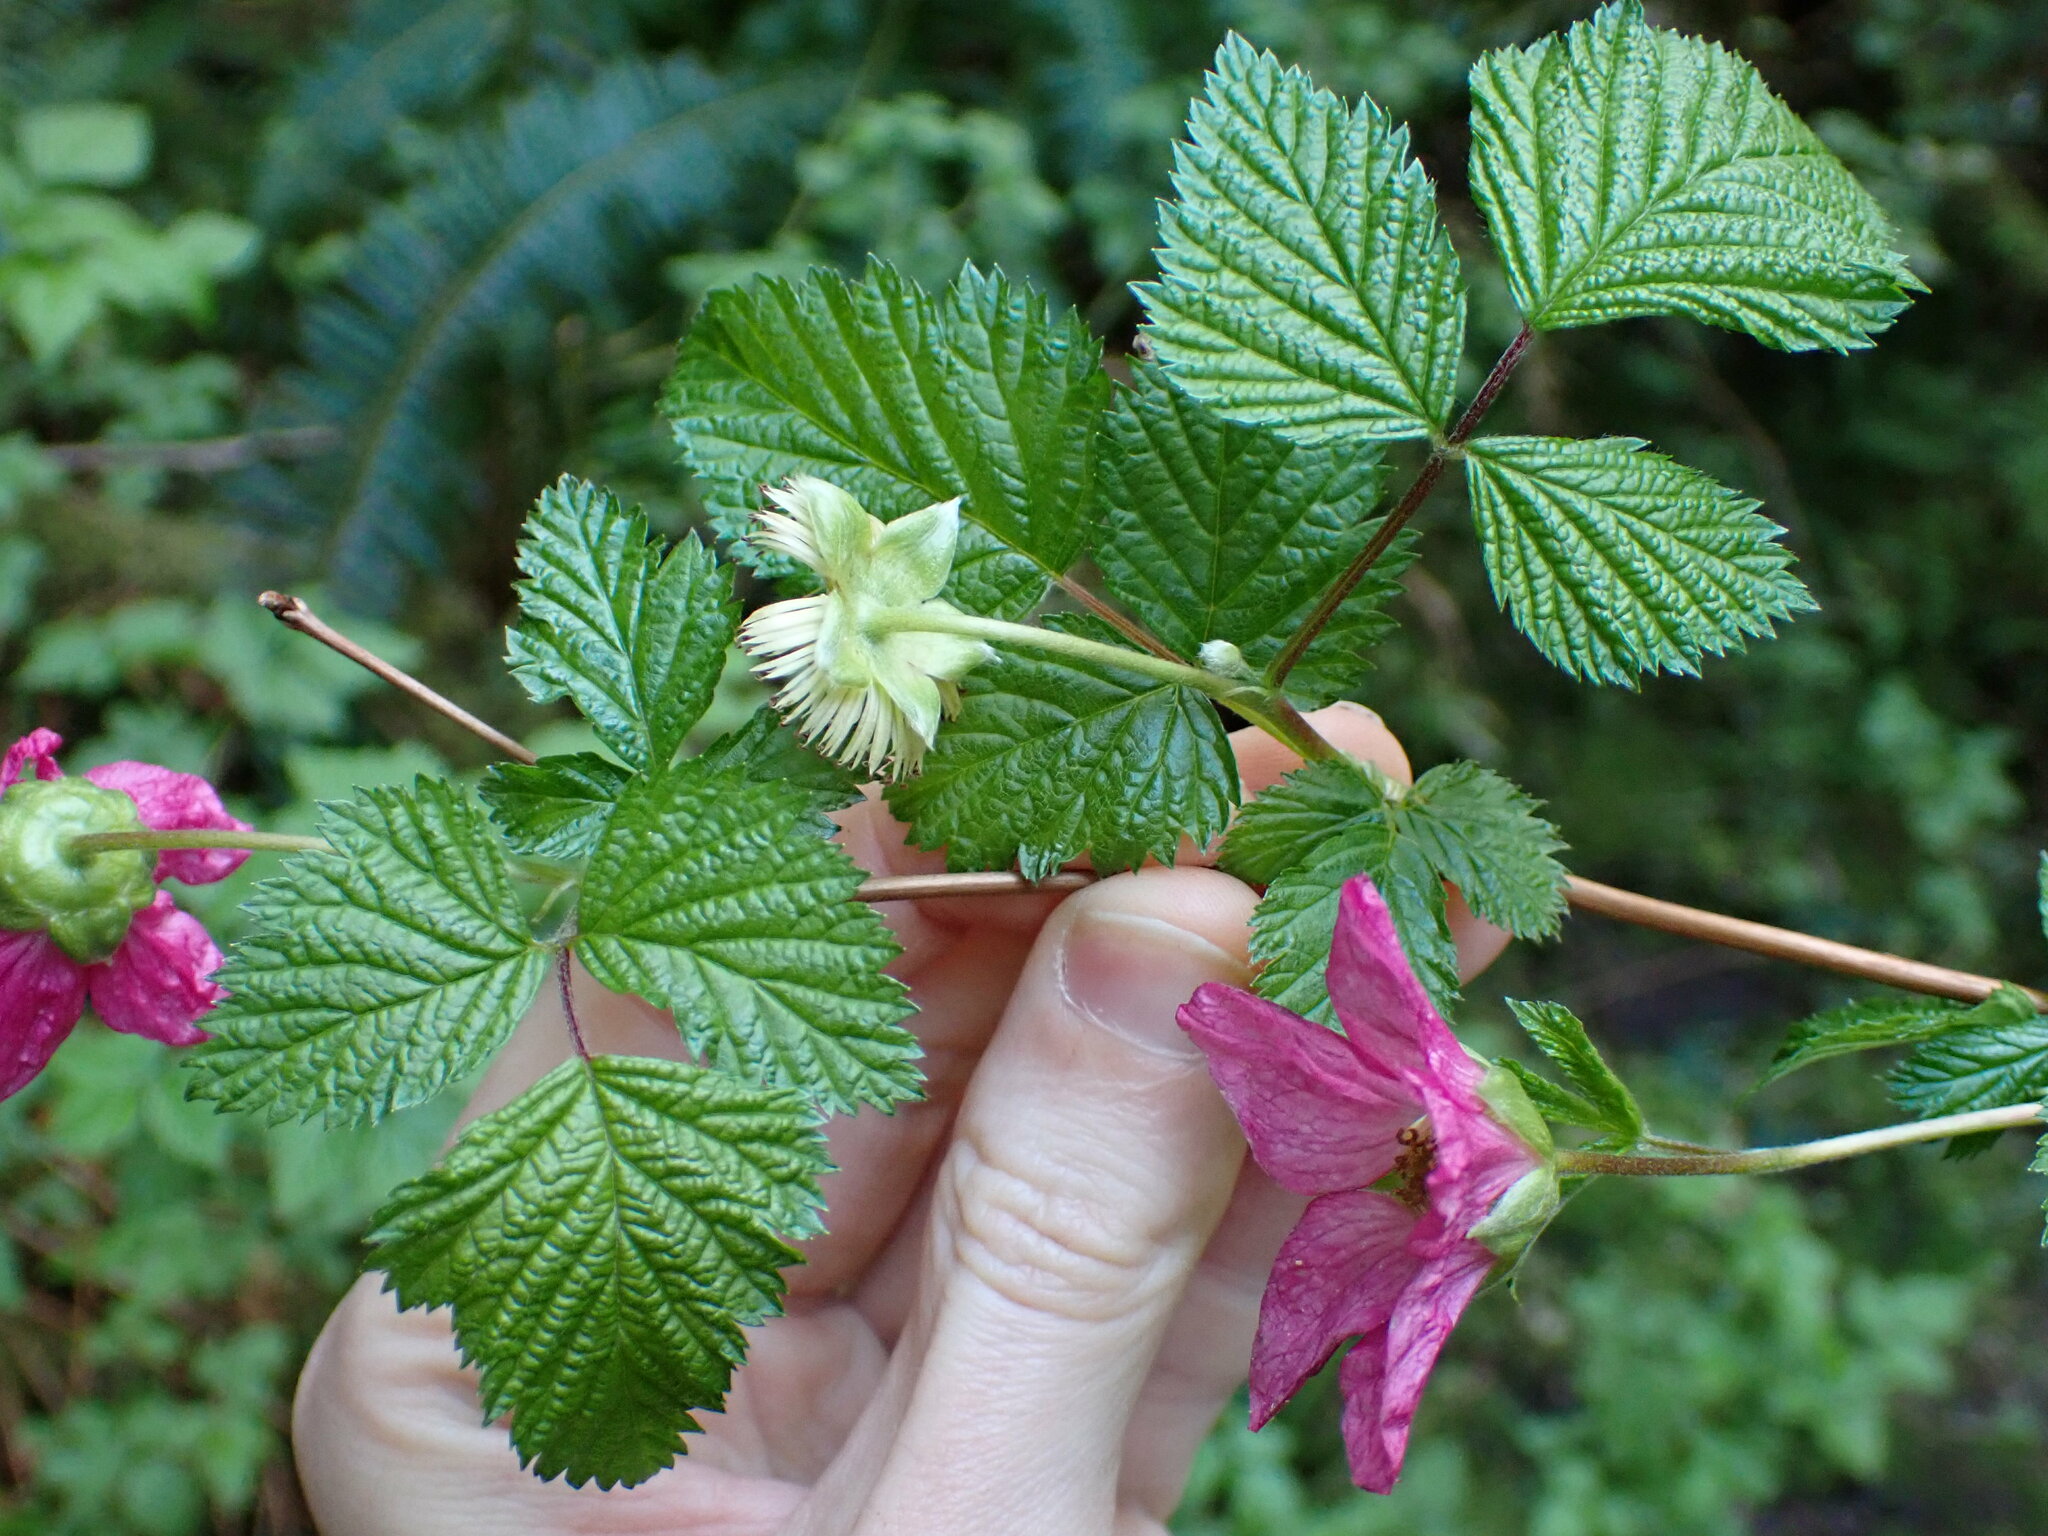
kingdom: Plantae
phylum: Tracheophyta
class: Magnoliopsida
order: Rosales
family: Rosaceae
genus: Rubus
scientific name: Rubus spectabilis
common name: Salmonberry
